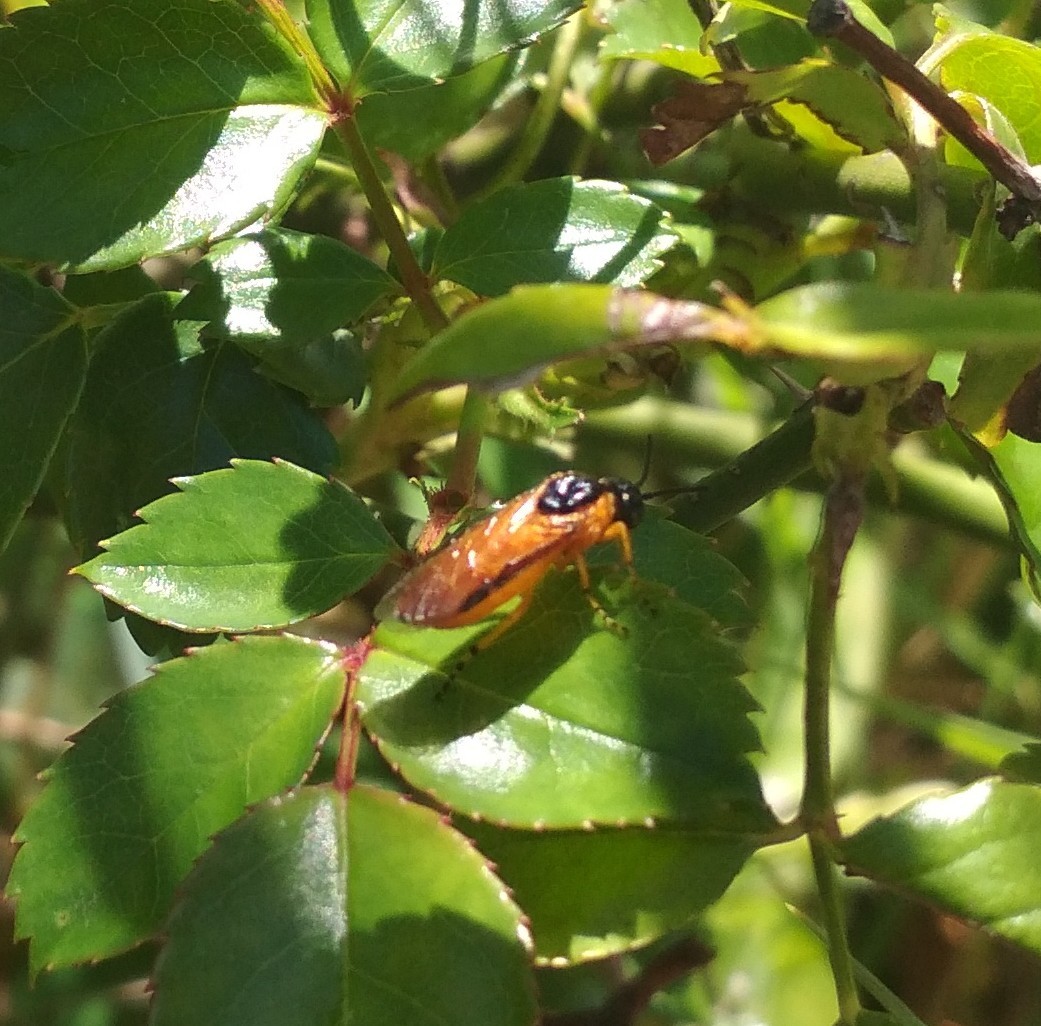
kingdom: Animalia
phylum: Arthropoda
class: Insecta
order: Hymenoptera
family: Argidae
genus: Arge
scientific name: Arge ochropus
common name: Argid sawfly
